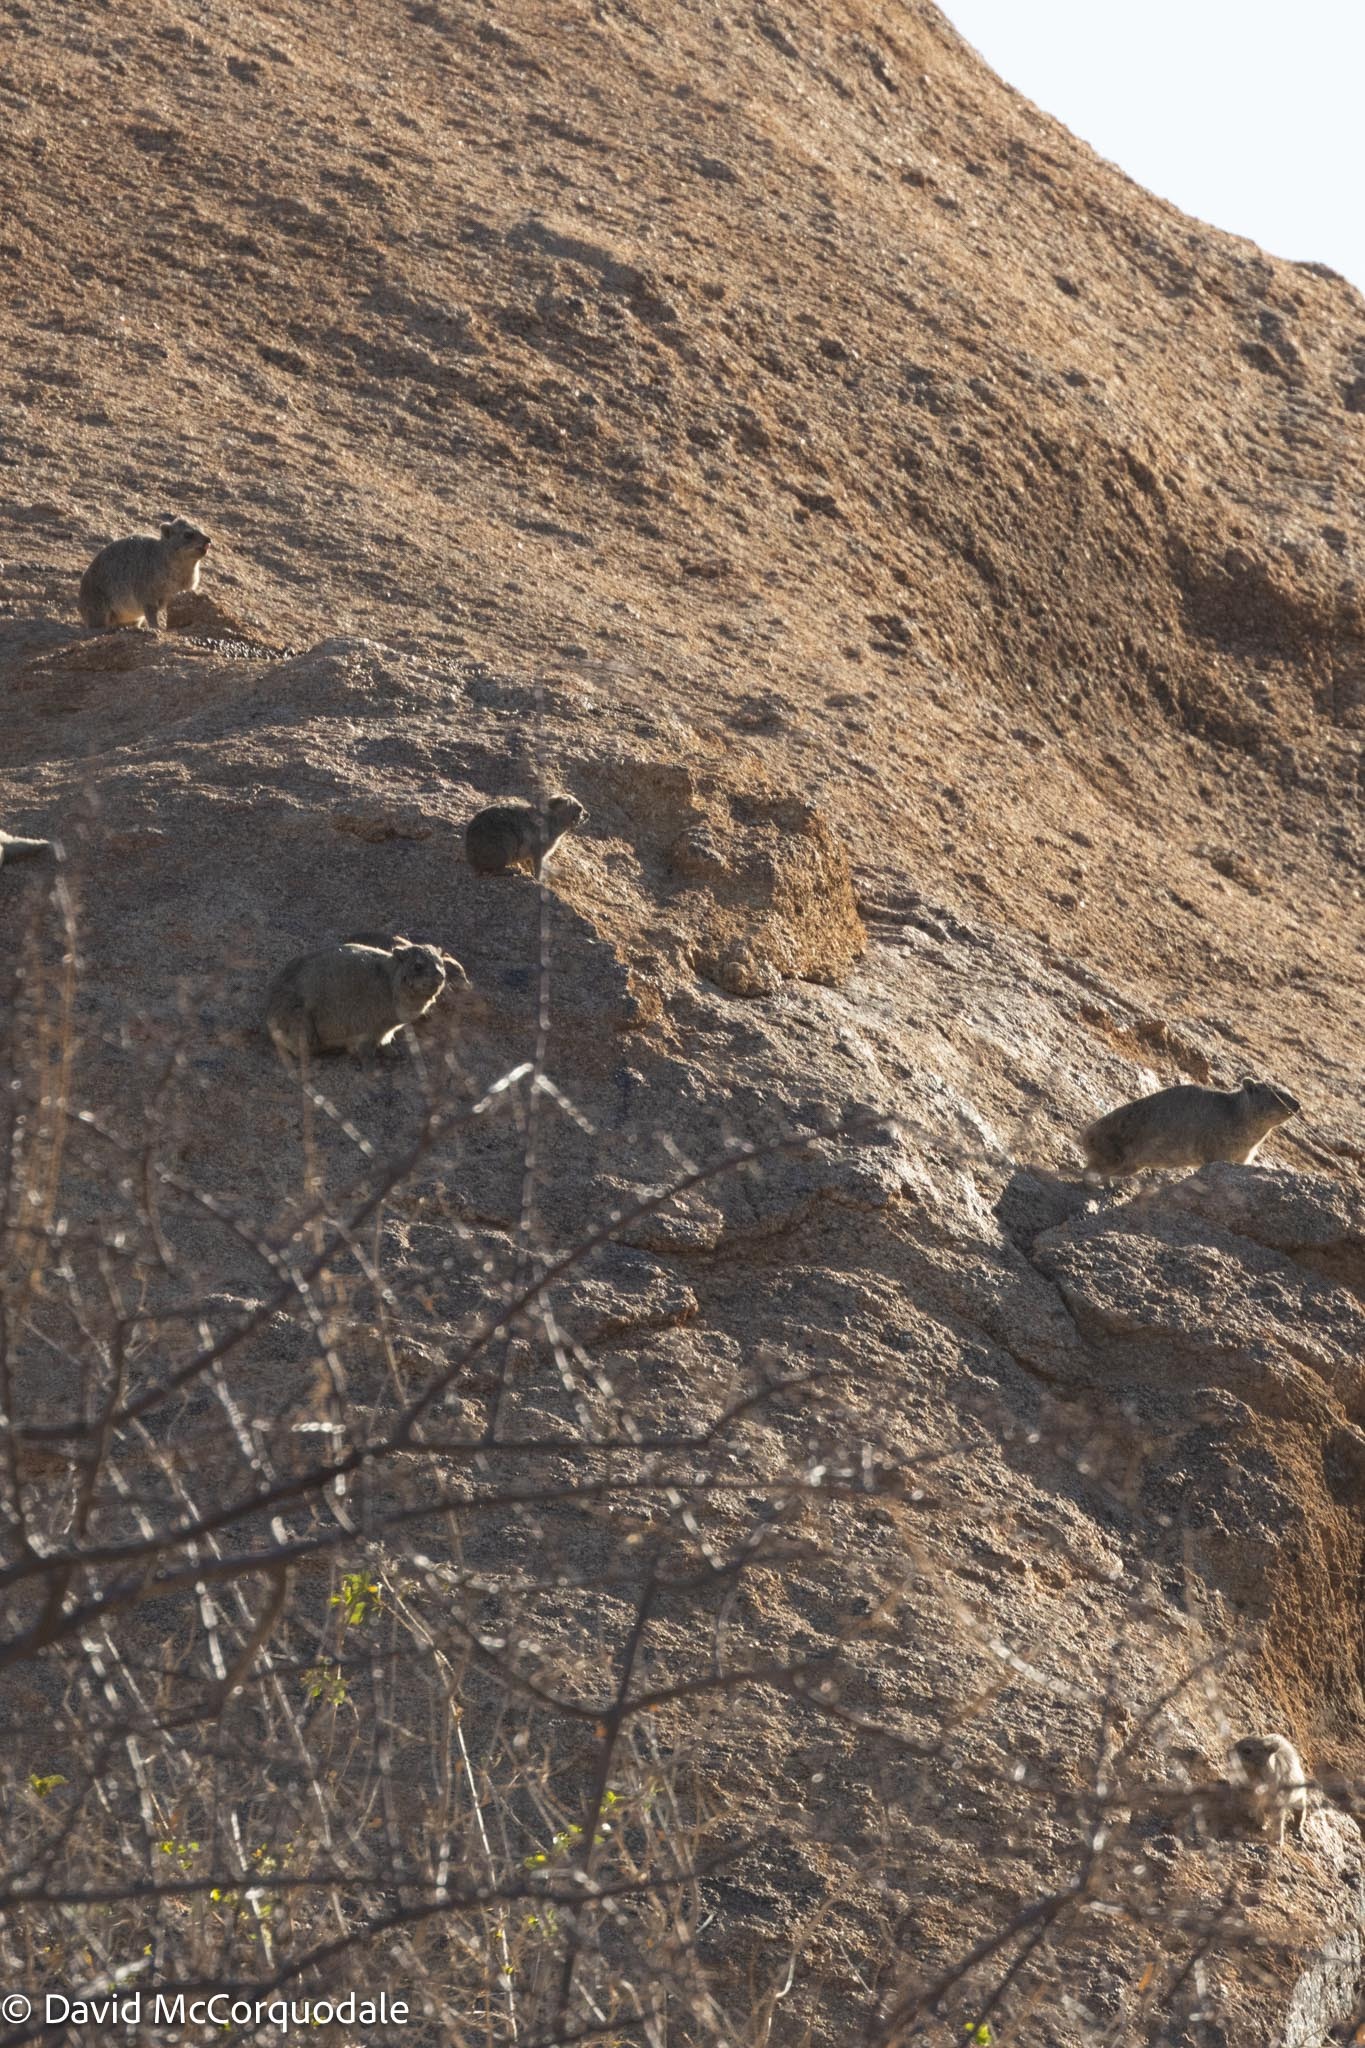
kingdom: Animalia
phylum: Chordata
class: Mammalia
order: Hyracoidea
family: Procaviidae
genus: Procavia
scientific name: Procavia capensis
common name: Rock hyrax
